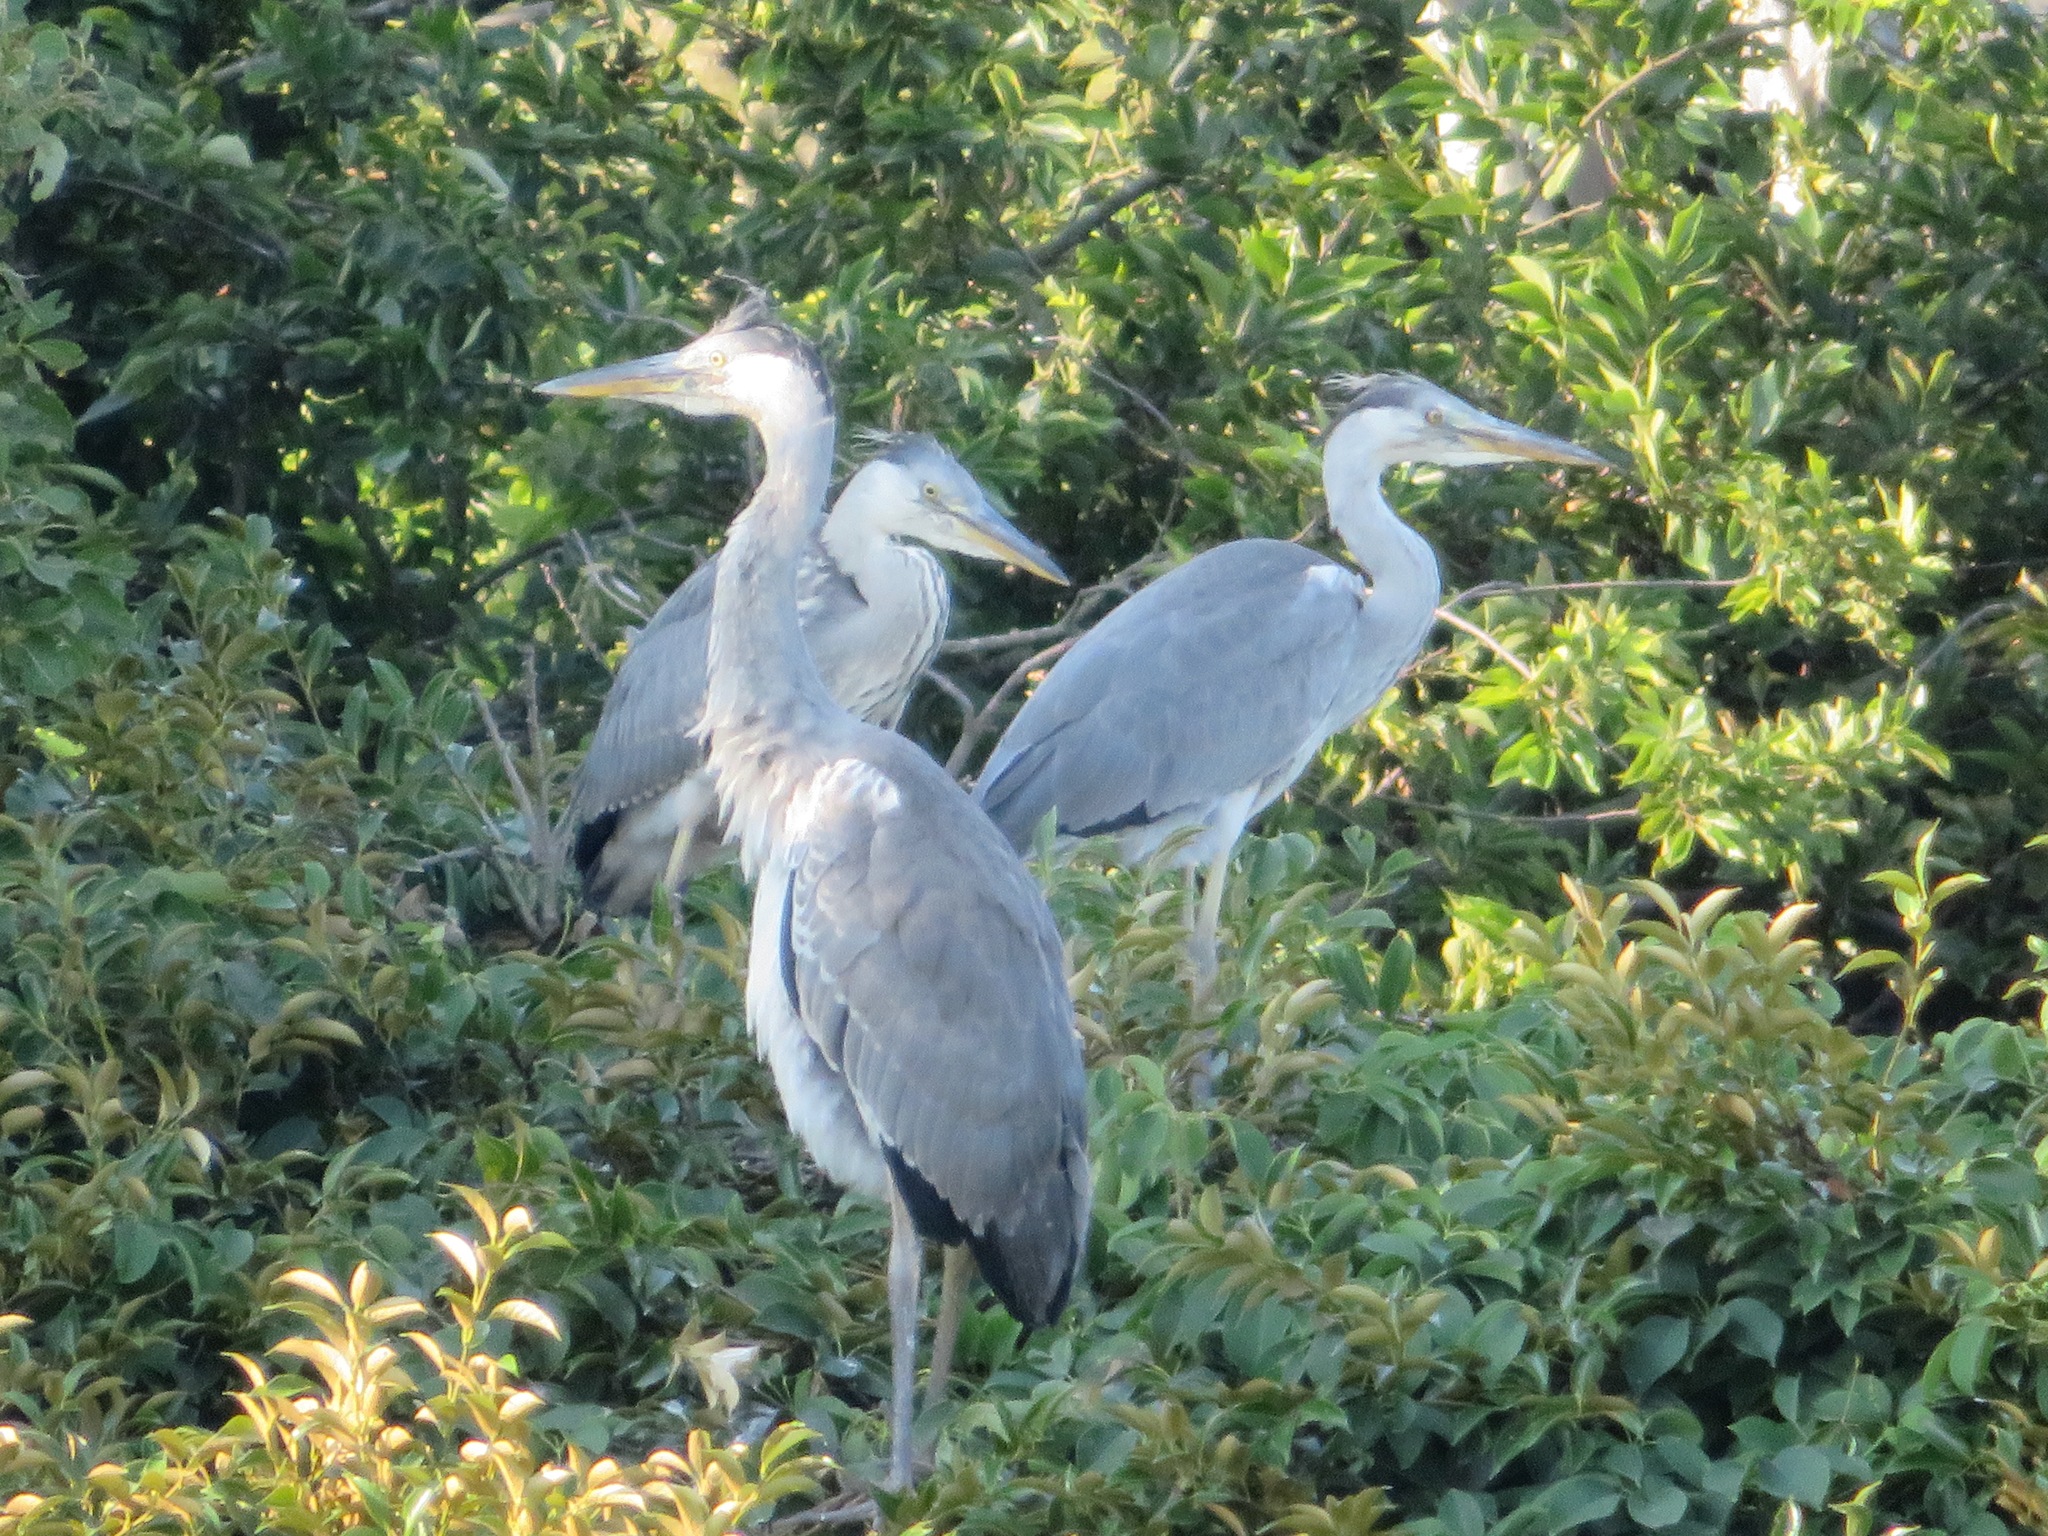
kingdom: Animalia
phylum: Chordata
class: Aves
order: Pelecaniformes
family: Ardeidae
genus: Ardea
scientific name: Ardea cinerea
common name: Grey heron
